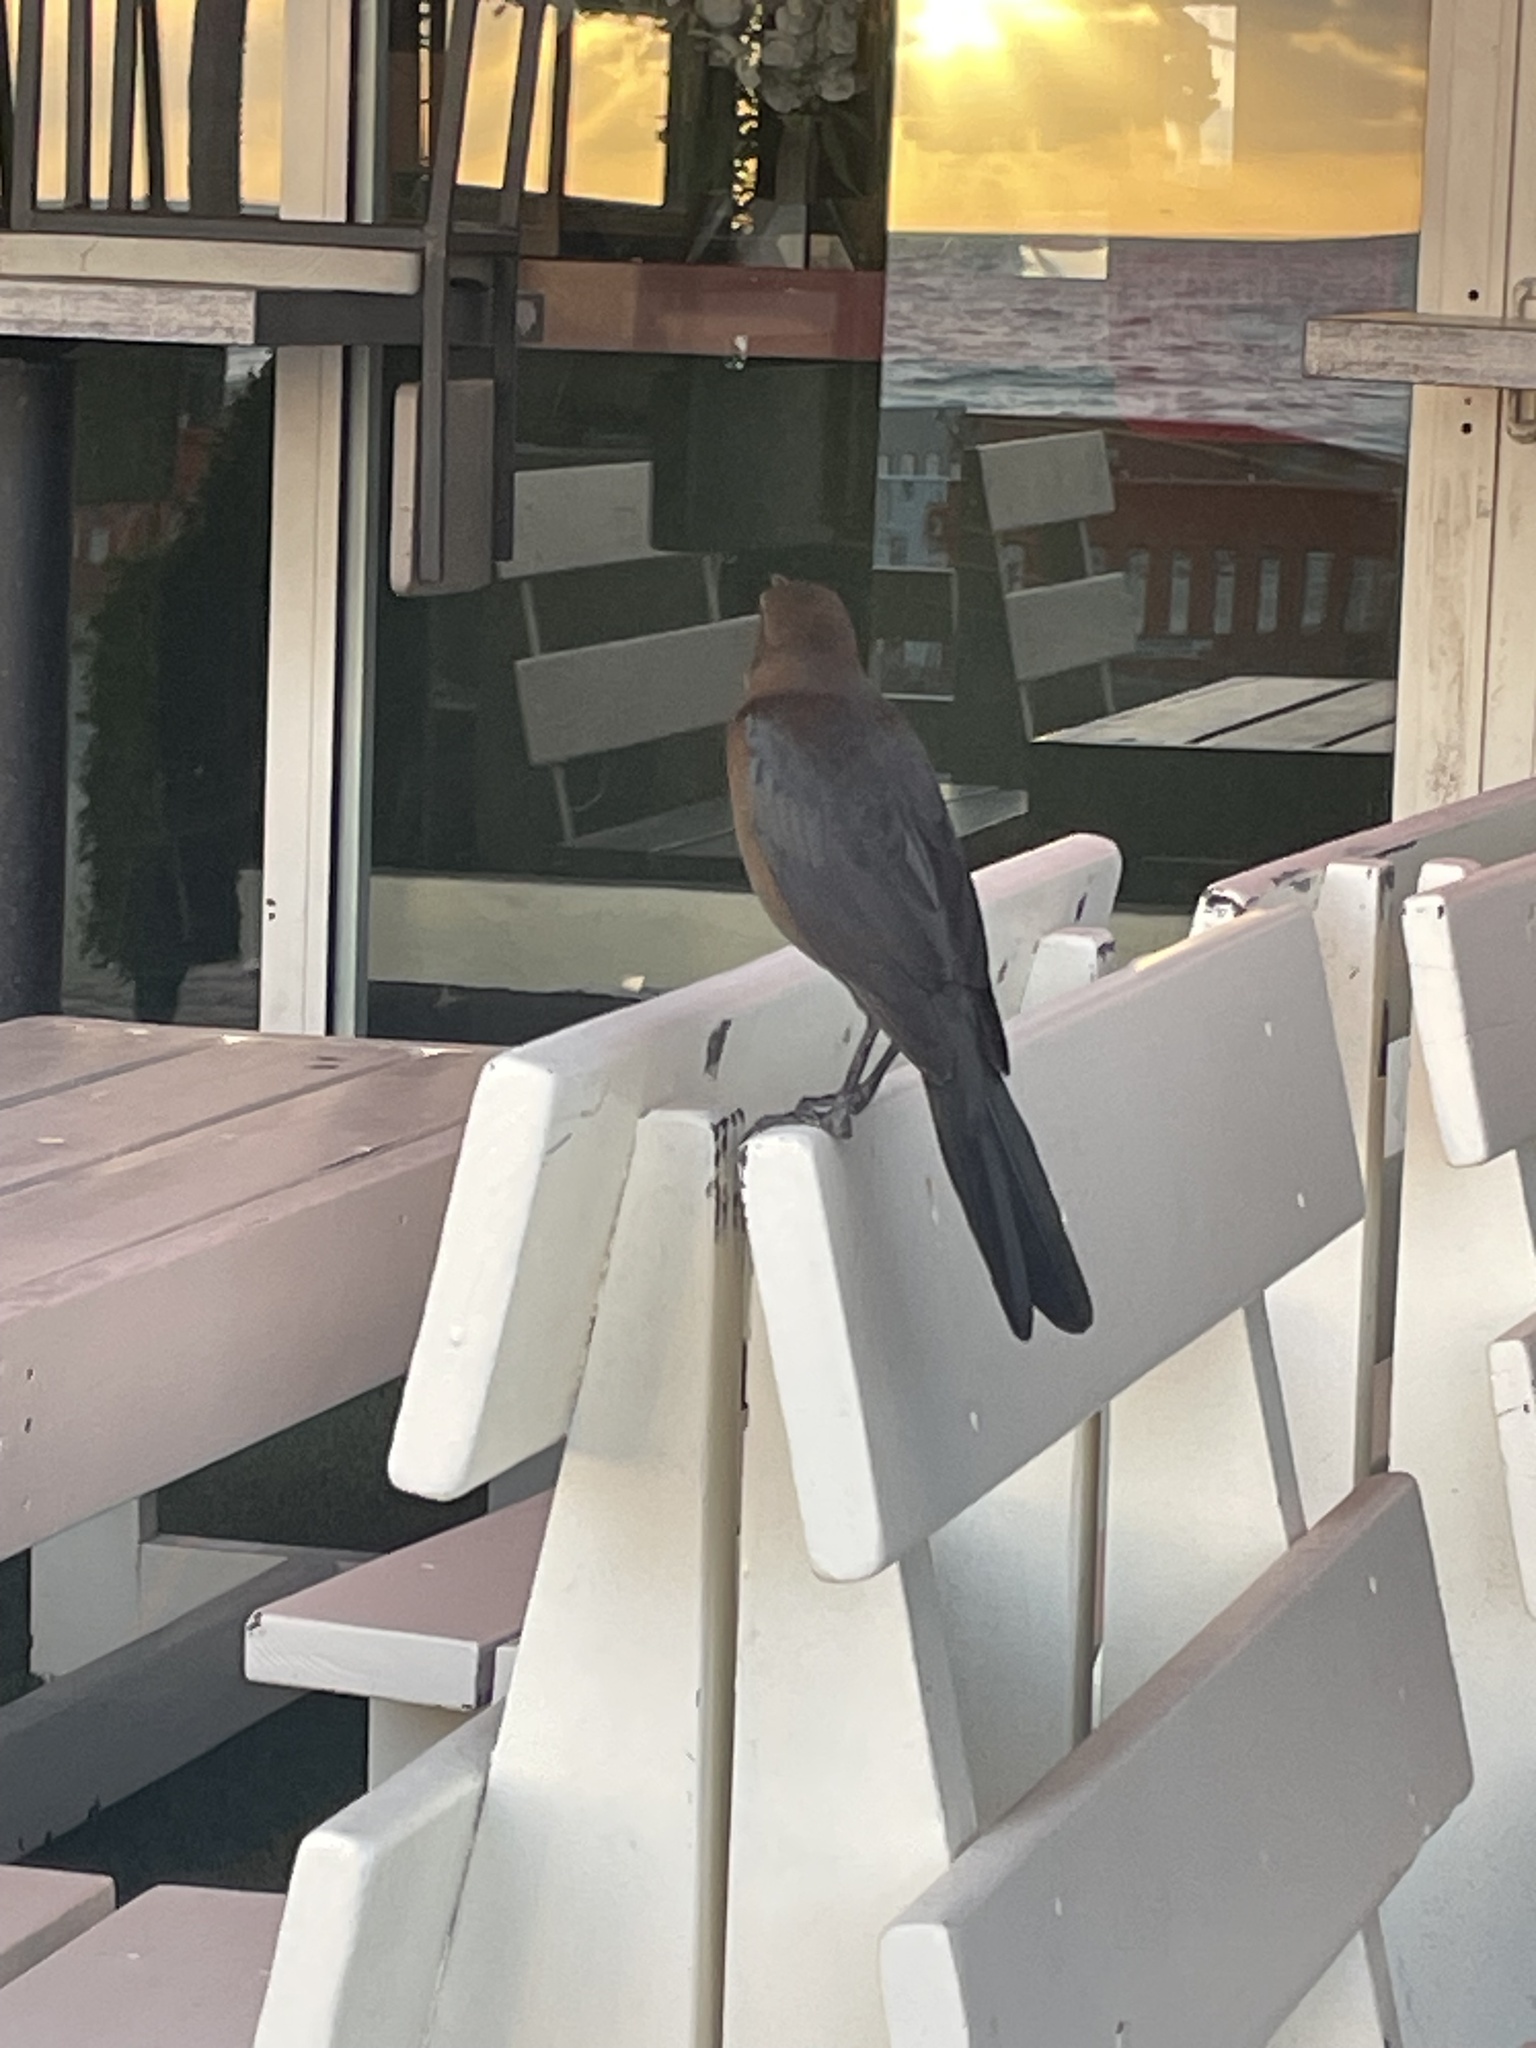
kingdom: Animalia
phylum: Chordata
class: Aves
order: Passeriformes
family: Icteridae
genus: Quiscalus
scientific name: Quiscalus major
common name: Boat-tailed grackle
